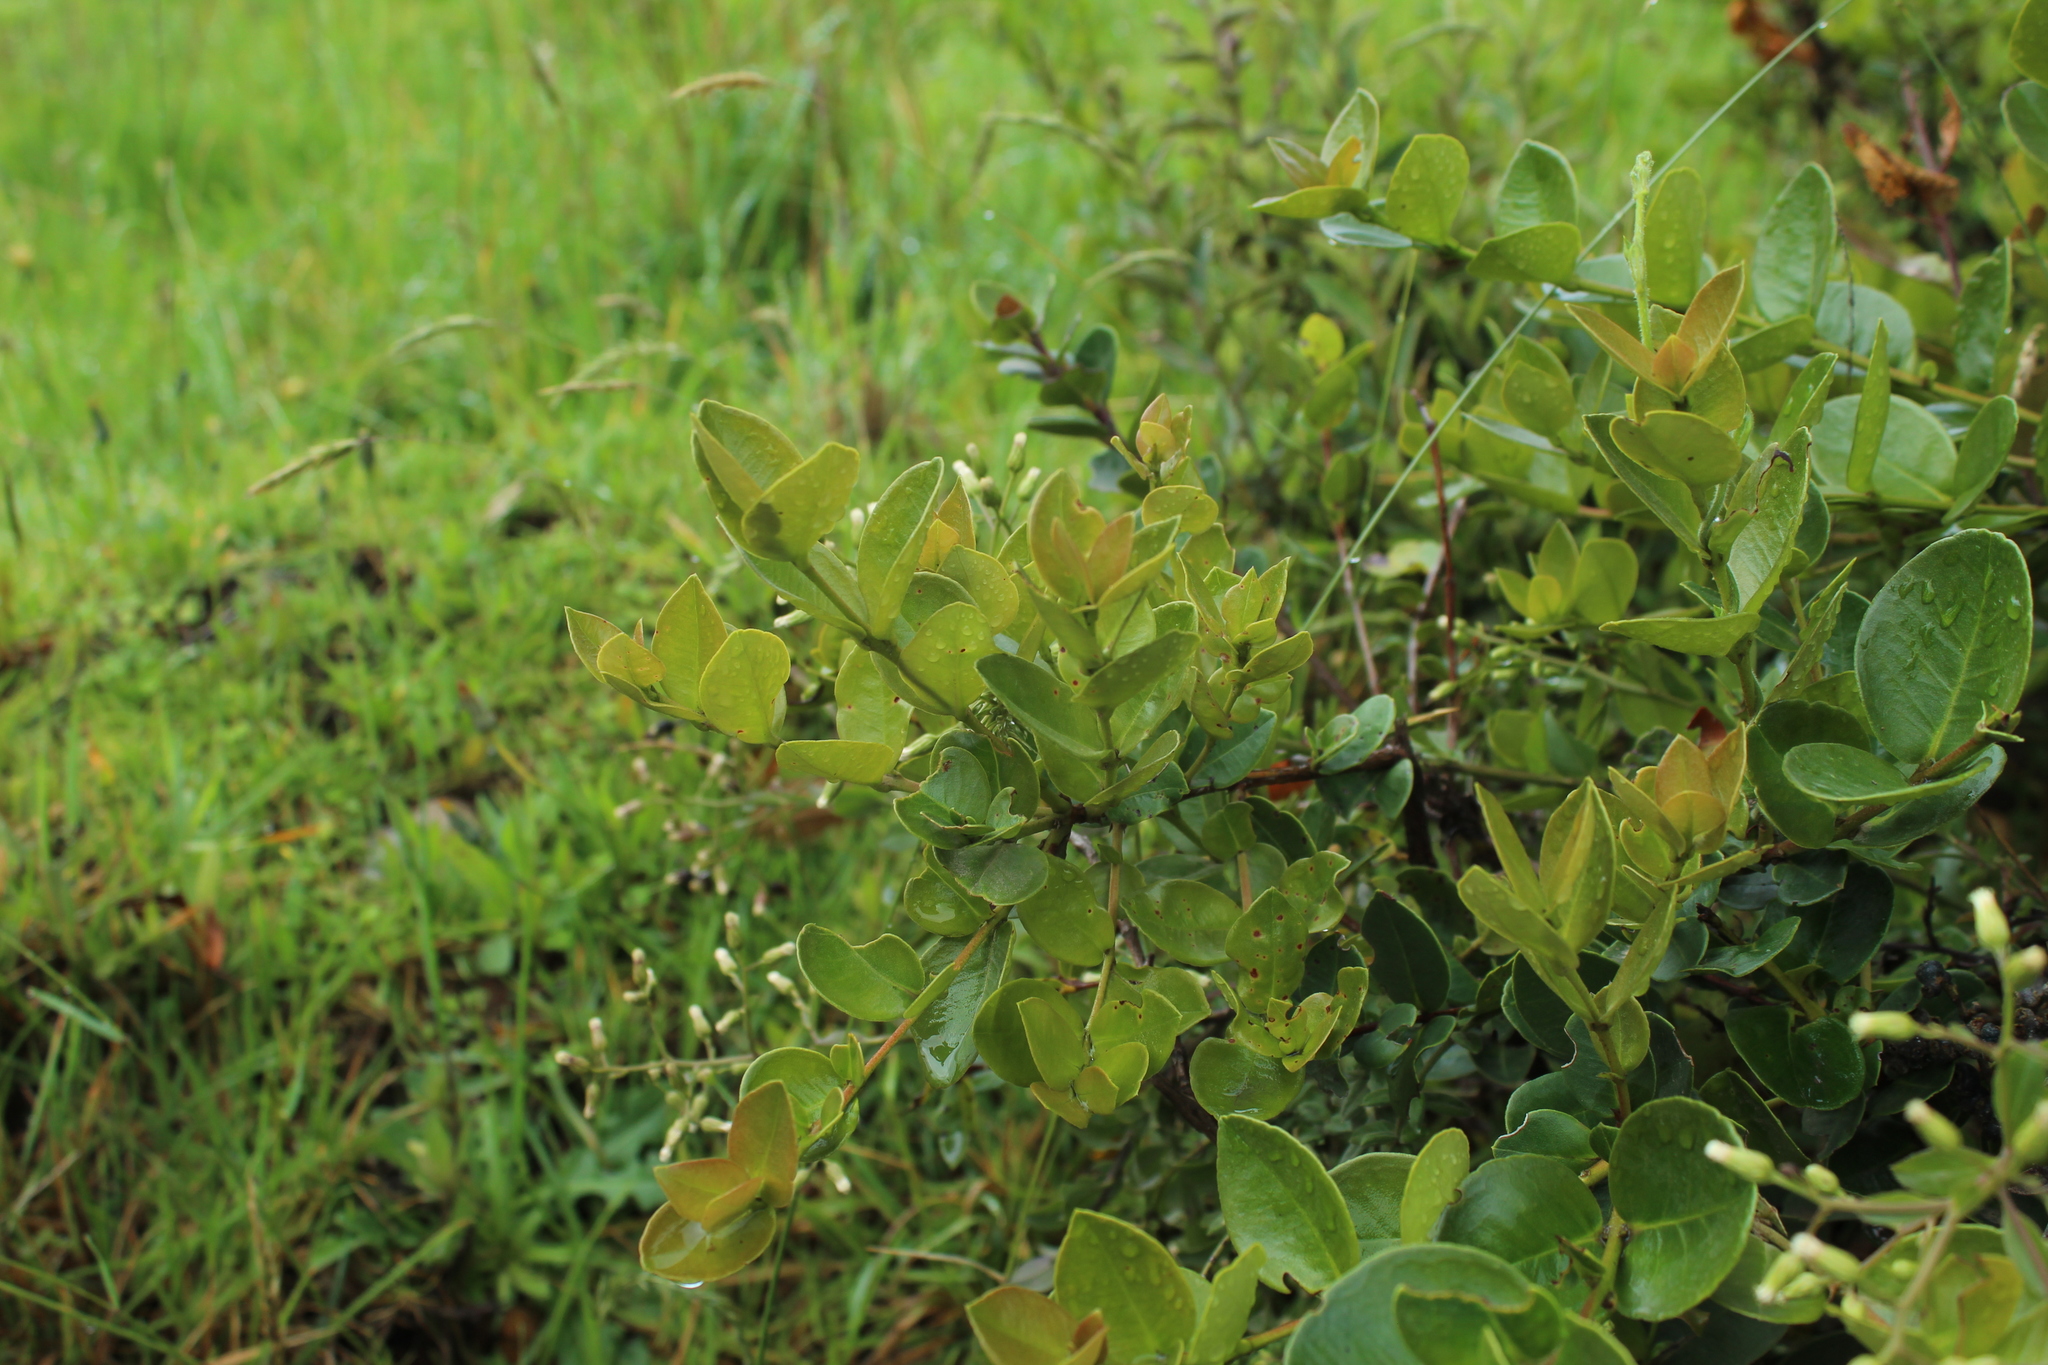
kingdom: Plantae
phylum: Tracheophyta
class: Magnoliopsida
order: Myrtales
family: Myrtaceae
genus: Myrcianthes
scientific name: Myrcianthes leucoxyla
